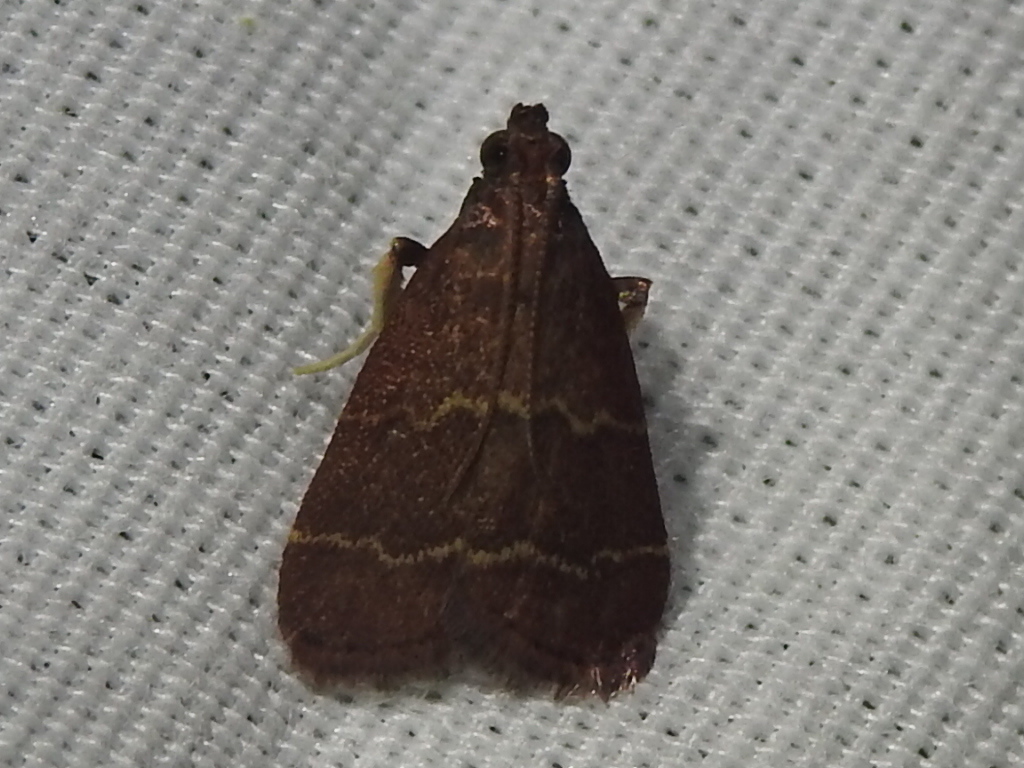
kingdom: Animalia
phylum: Arthropoda
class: Insecta
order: Lepidoptera
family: Pyralidae
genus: Arta
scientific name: Arta
